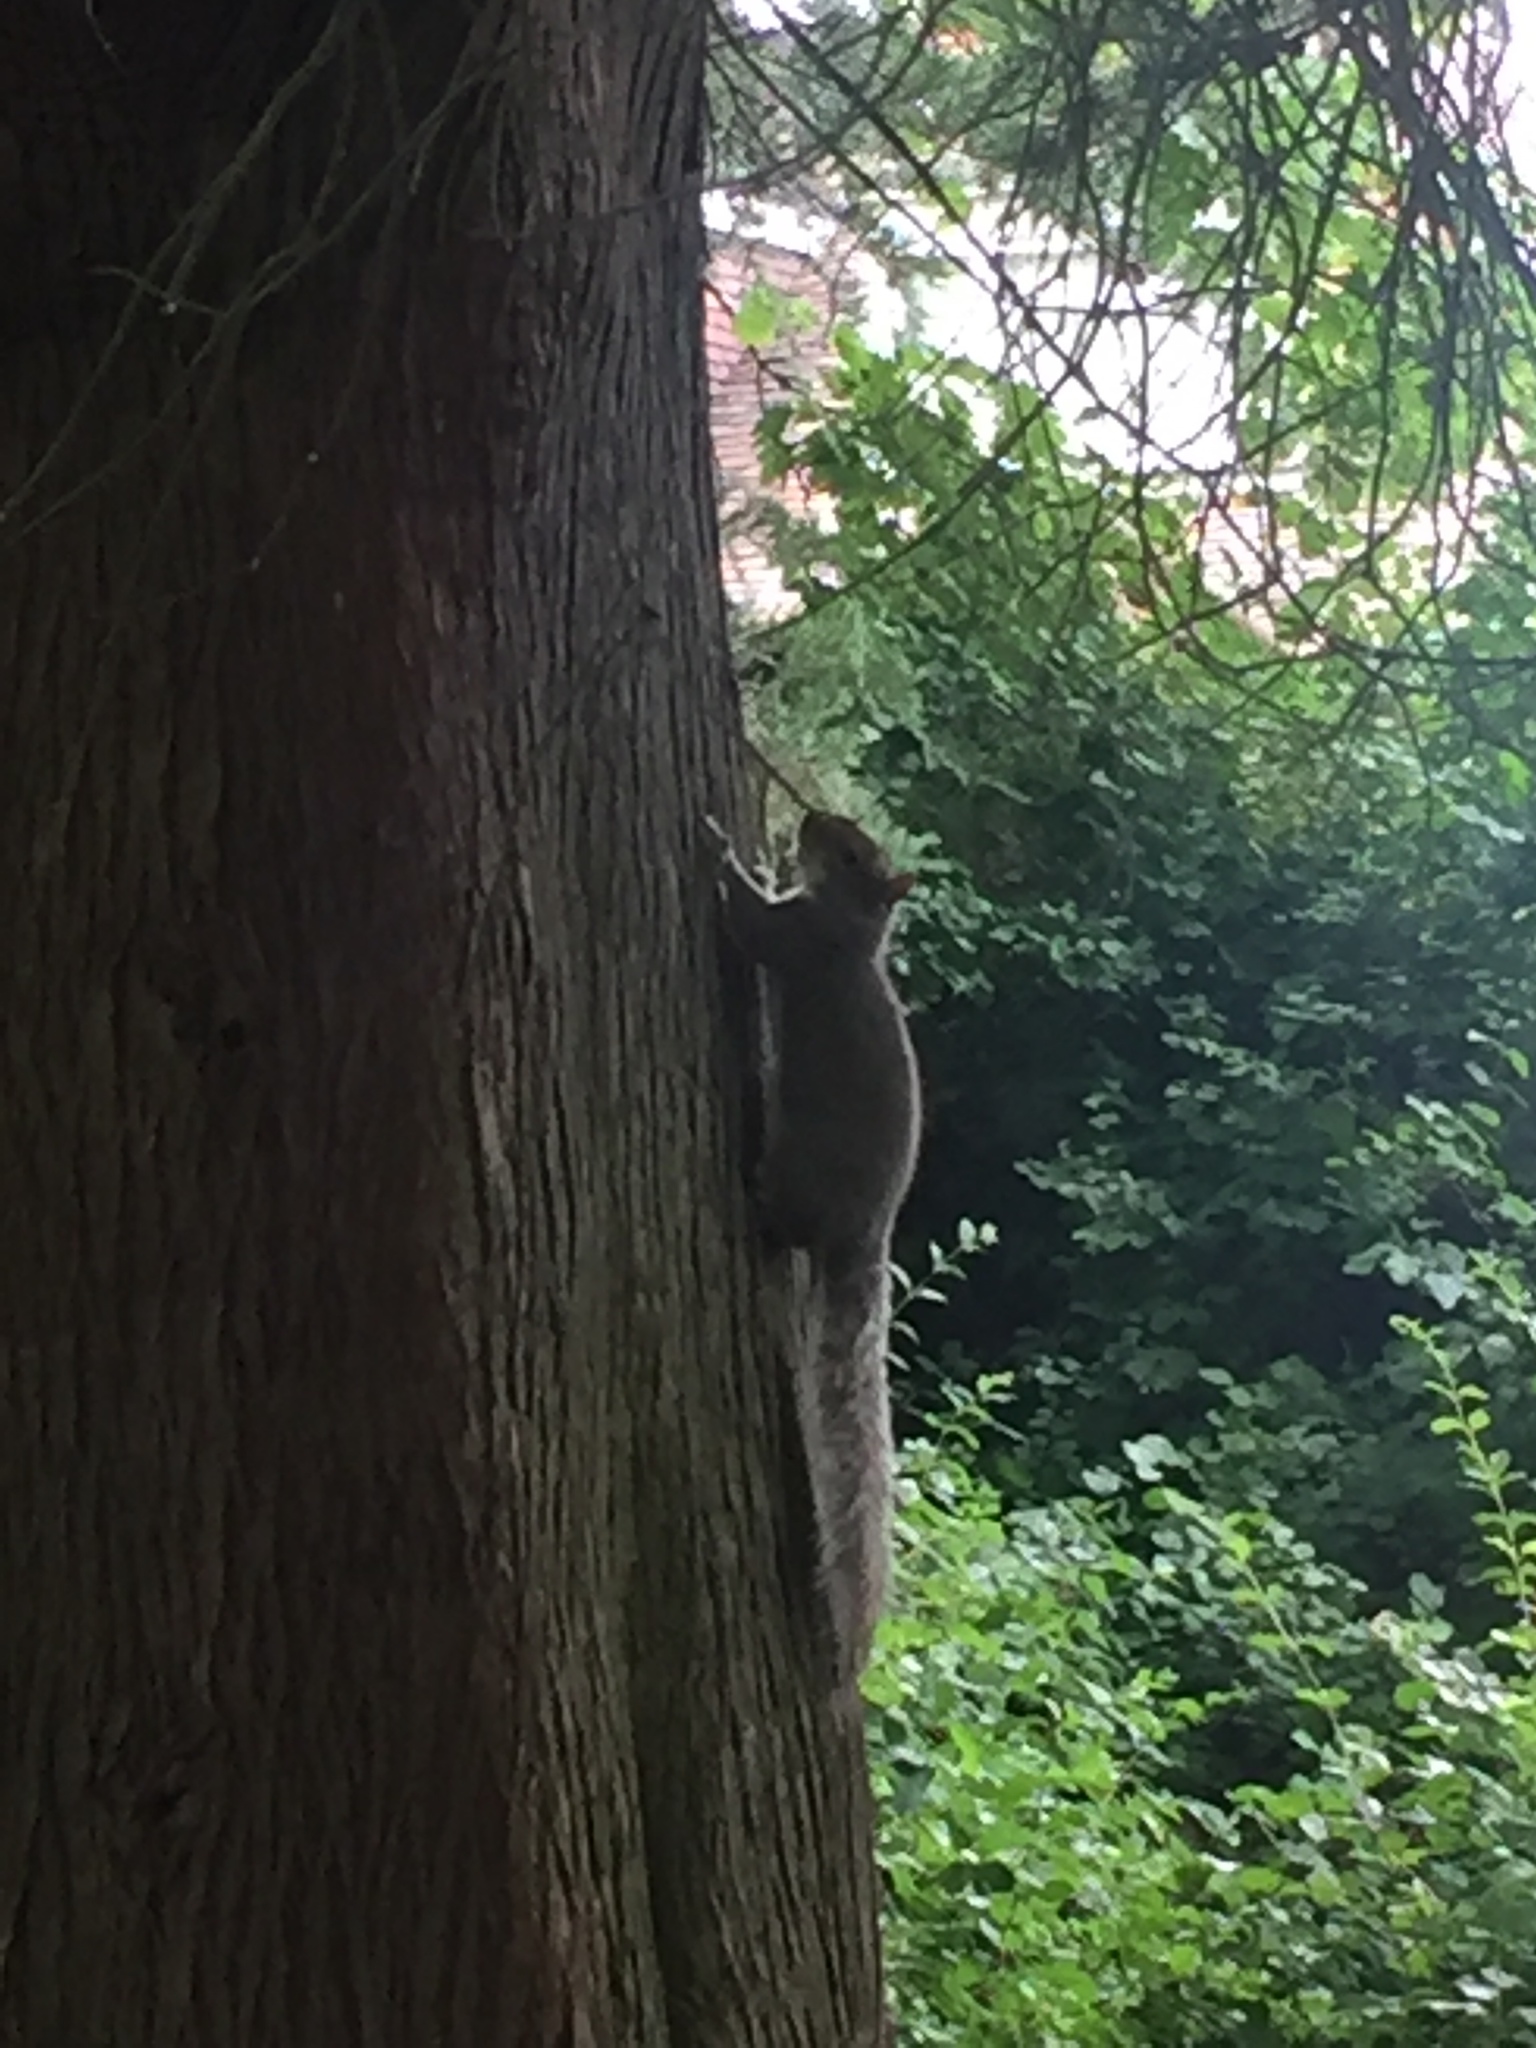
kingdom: Animalia
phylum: Chordata
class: Mammalia
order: Rodentia
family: Sciuridae
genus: Sciurus
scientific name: Sciurus carolinensis
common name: Eastern gray squirrel
